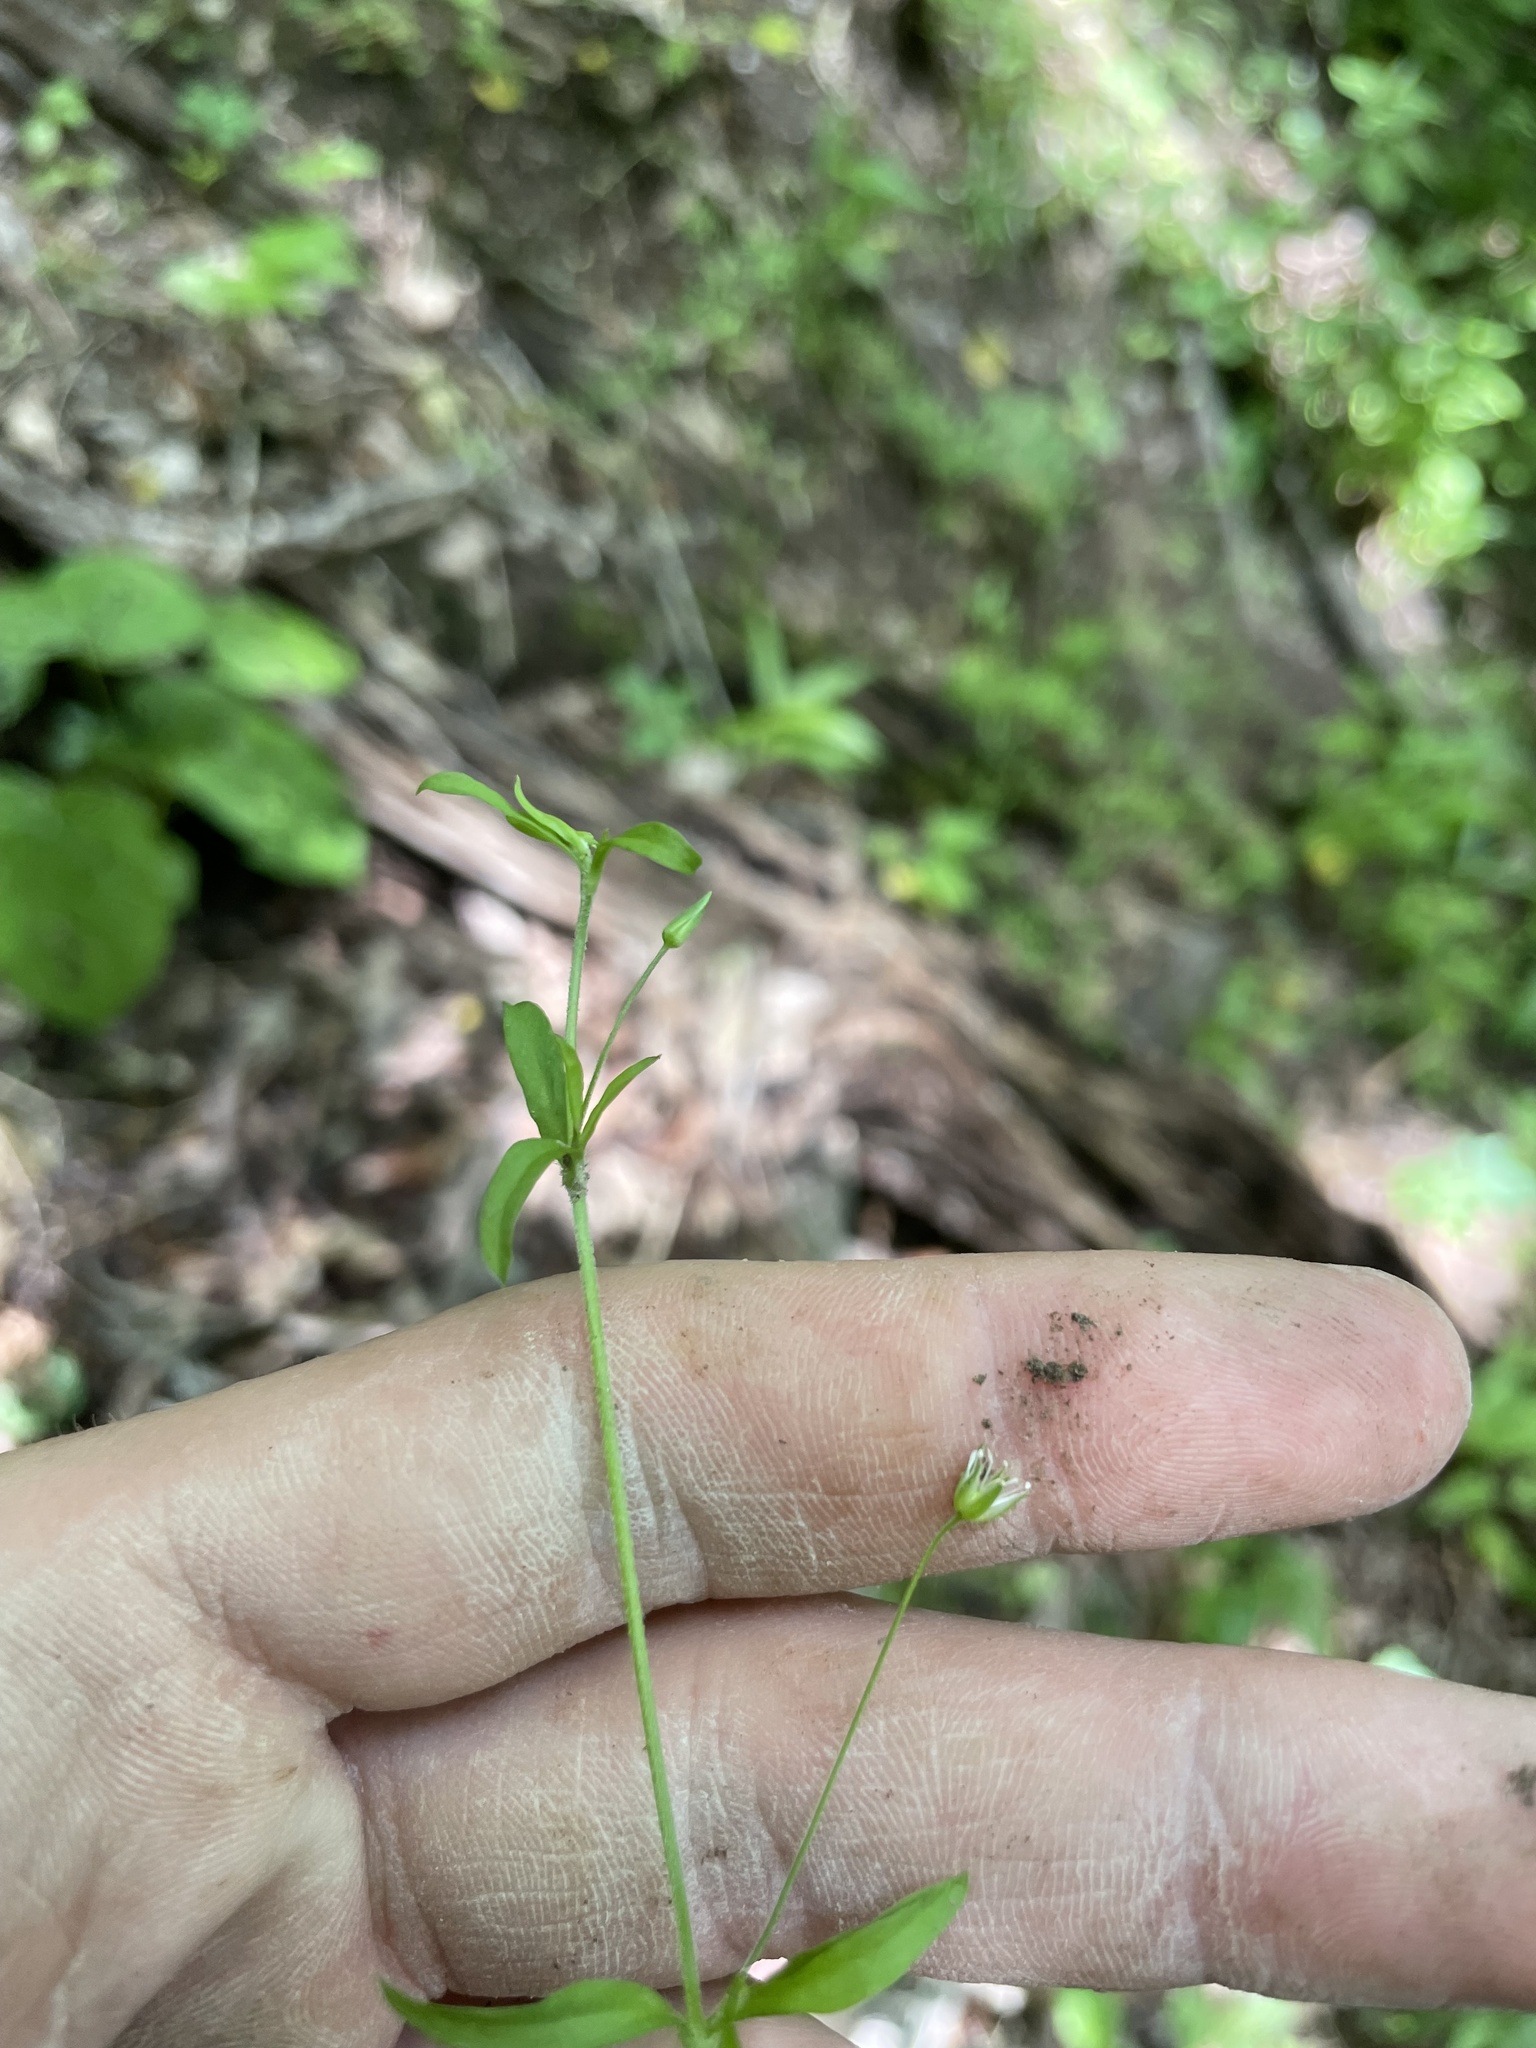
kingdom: Plantae
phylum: Tracheophyta
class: Magnoliopsida
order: Caryophyllales
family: Caryophyllaceae
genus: Arenaria
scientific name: Arenaria lanuginosa
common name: Spread sandwort
